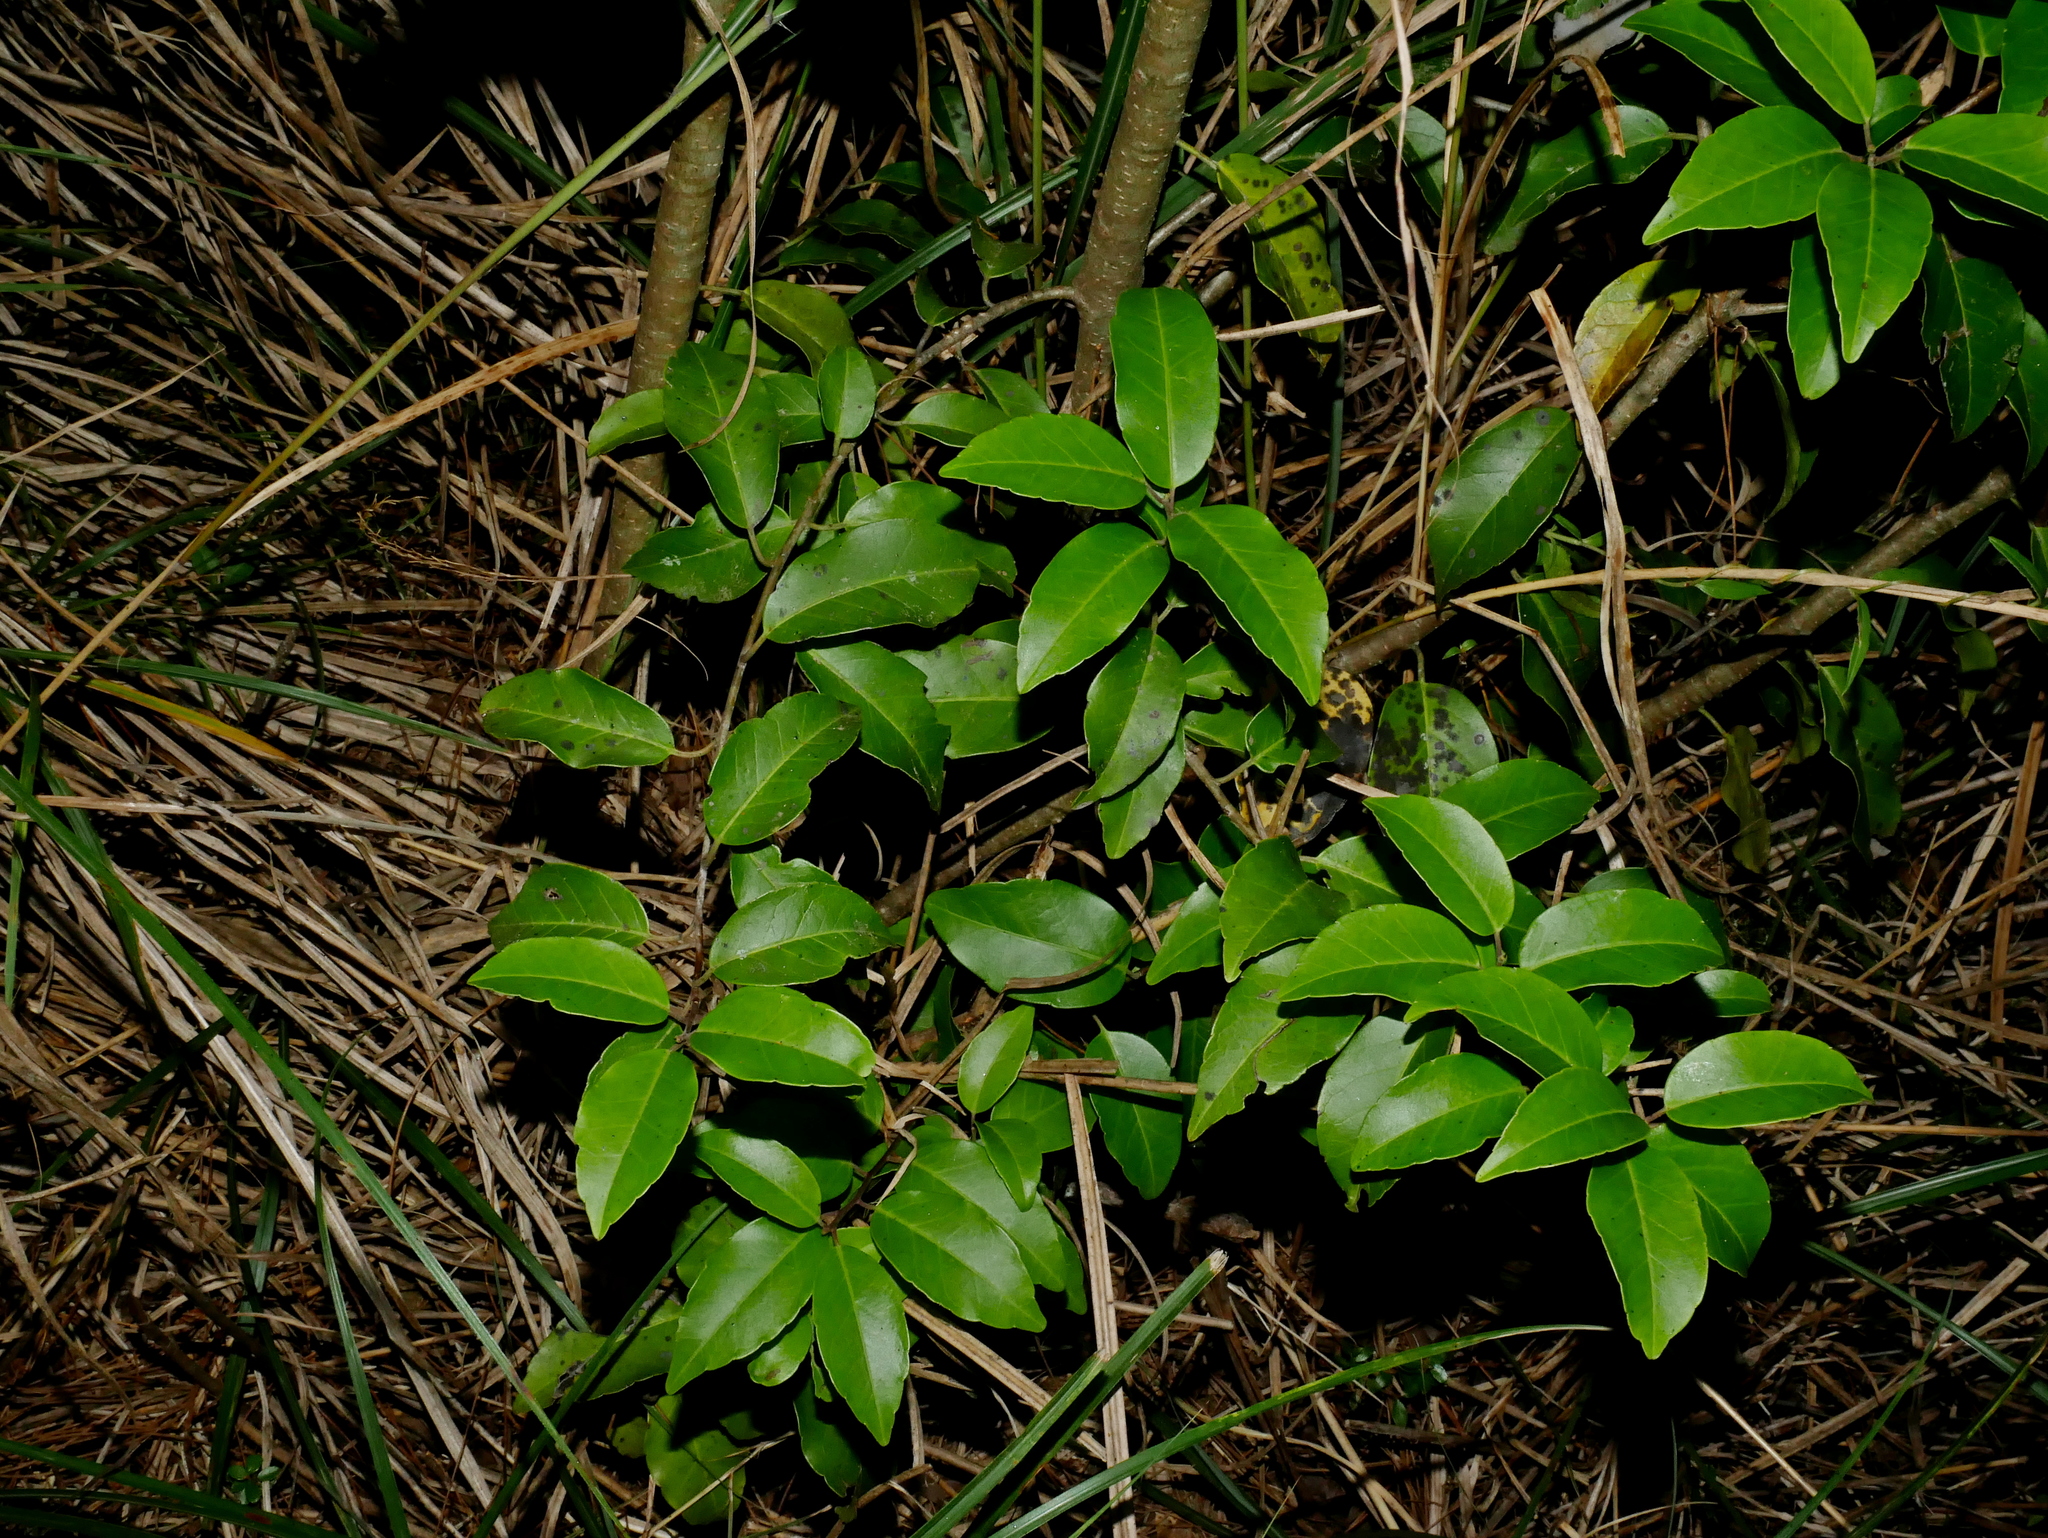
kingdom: Plantae
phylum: Tracheophyta
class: Magnoliopsida
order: Aquifoliales
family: Aquifoliaceae
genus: Ilex
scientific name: Ilex pedunculosa
